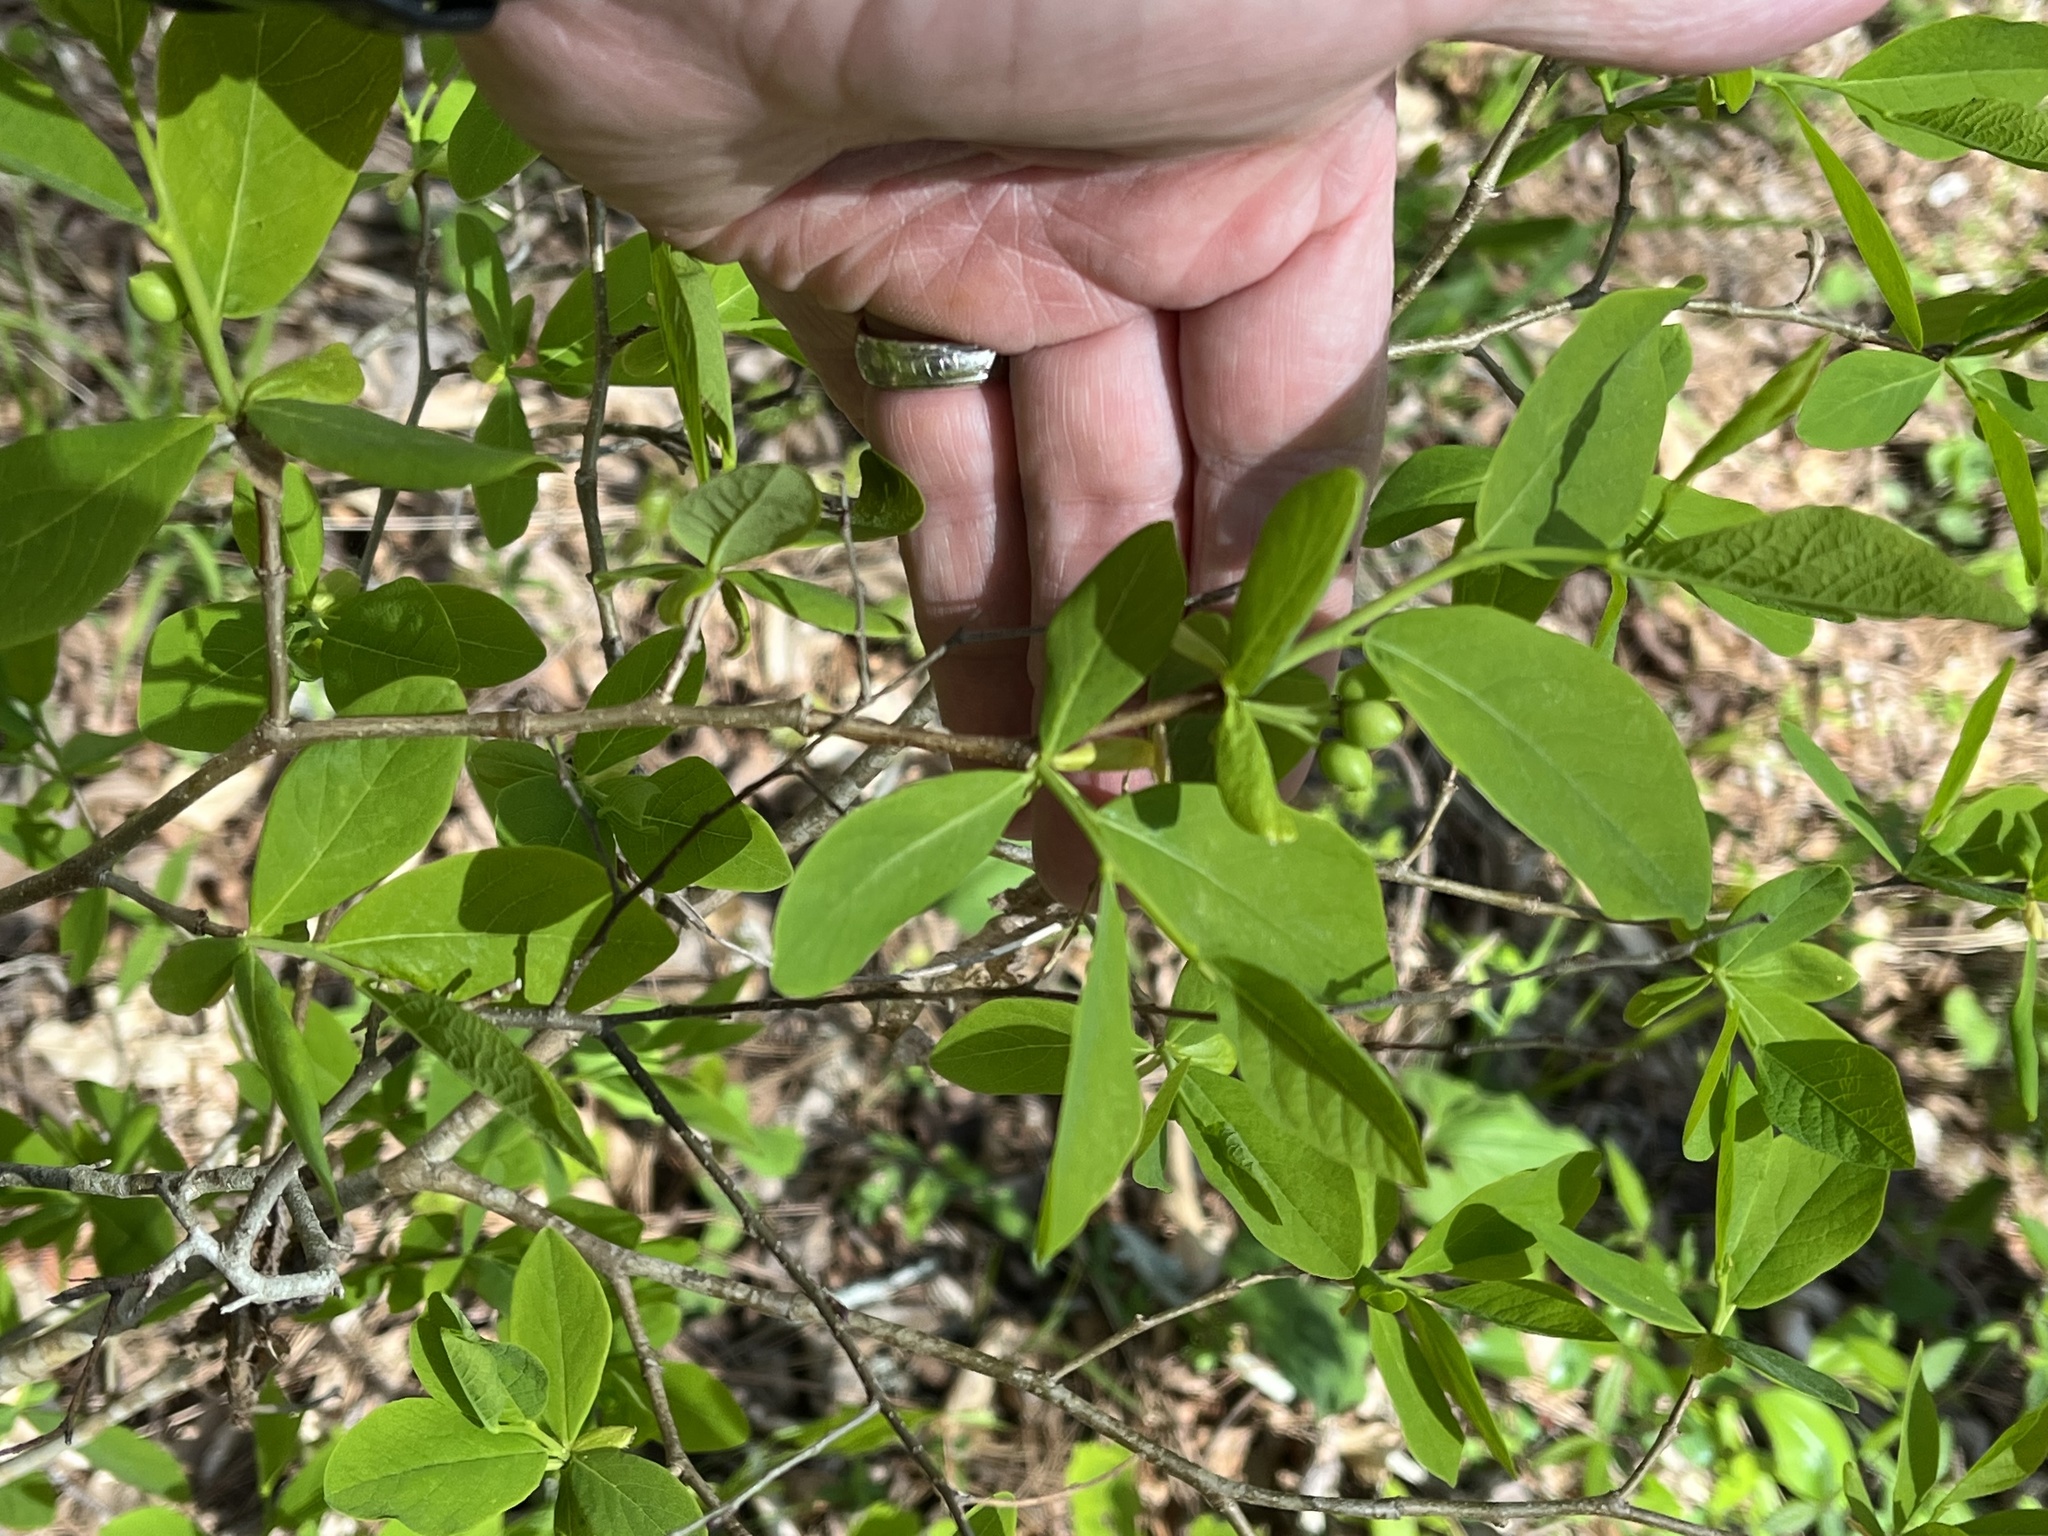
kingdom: Plantae
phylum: Tracheophyta
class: Magnoliopsida
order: Malvales
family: Thymelaeaceae
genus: Dirca
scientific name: Dirca palustris
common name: Leatherwood
